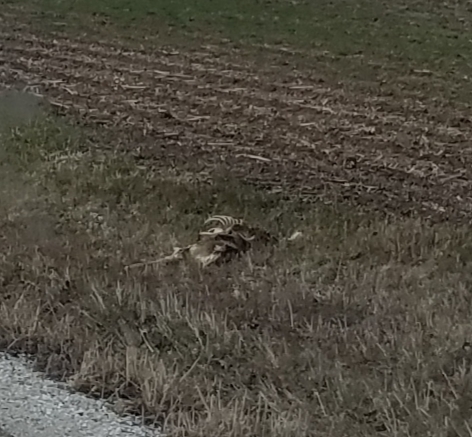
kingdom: Animalia
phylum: Chordata
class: Mammalia
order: Artiodactyla
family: Cervidae
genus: Odocoileus
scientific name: Odocoileus virginianus
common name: White-tailed deer
